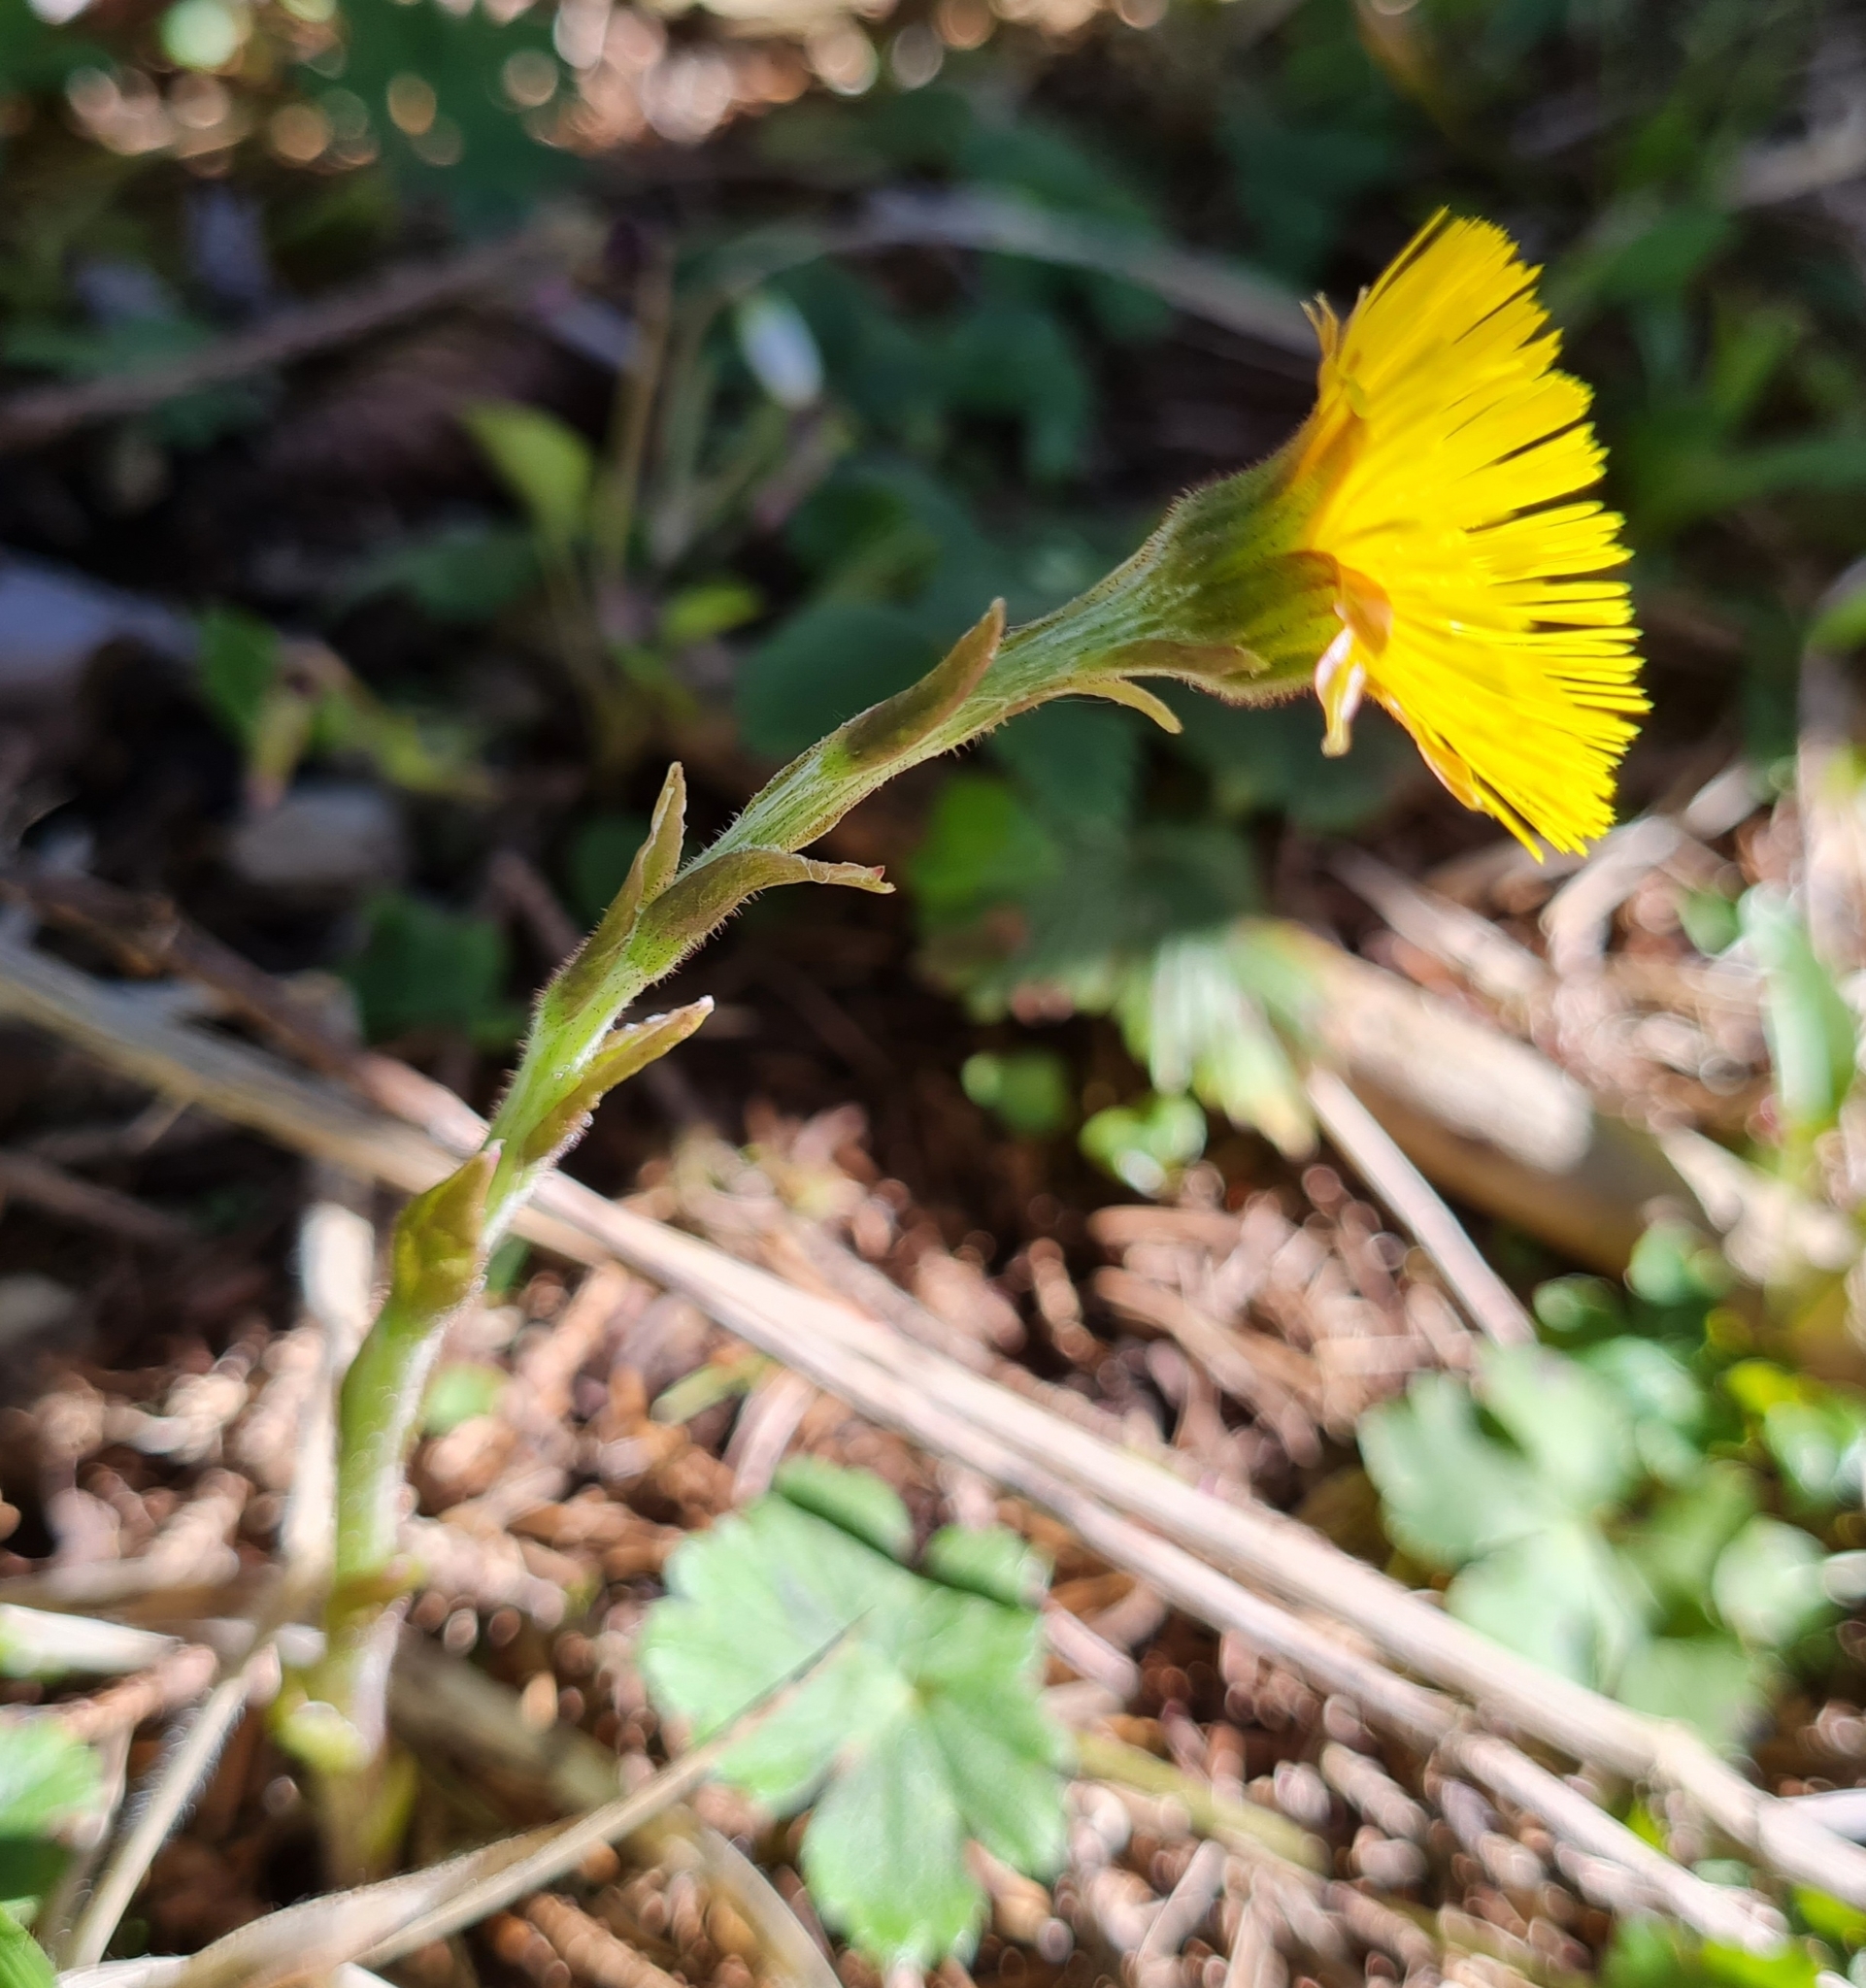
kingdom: Plantae
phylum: Tracheophyta
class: Magnoliopsida
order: Asterales
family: Asteraceae
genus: Tussilago
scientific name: Tussilago farfara
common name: Coltsfoot
